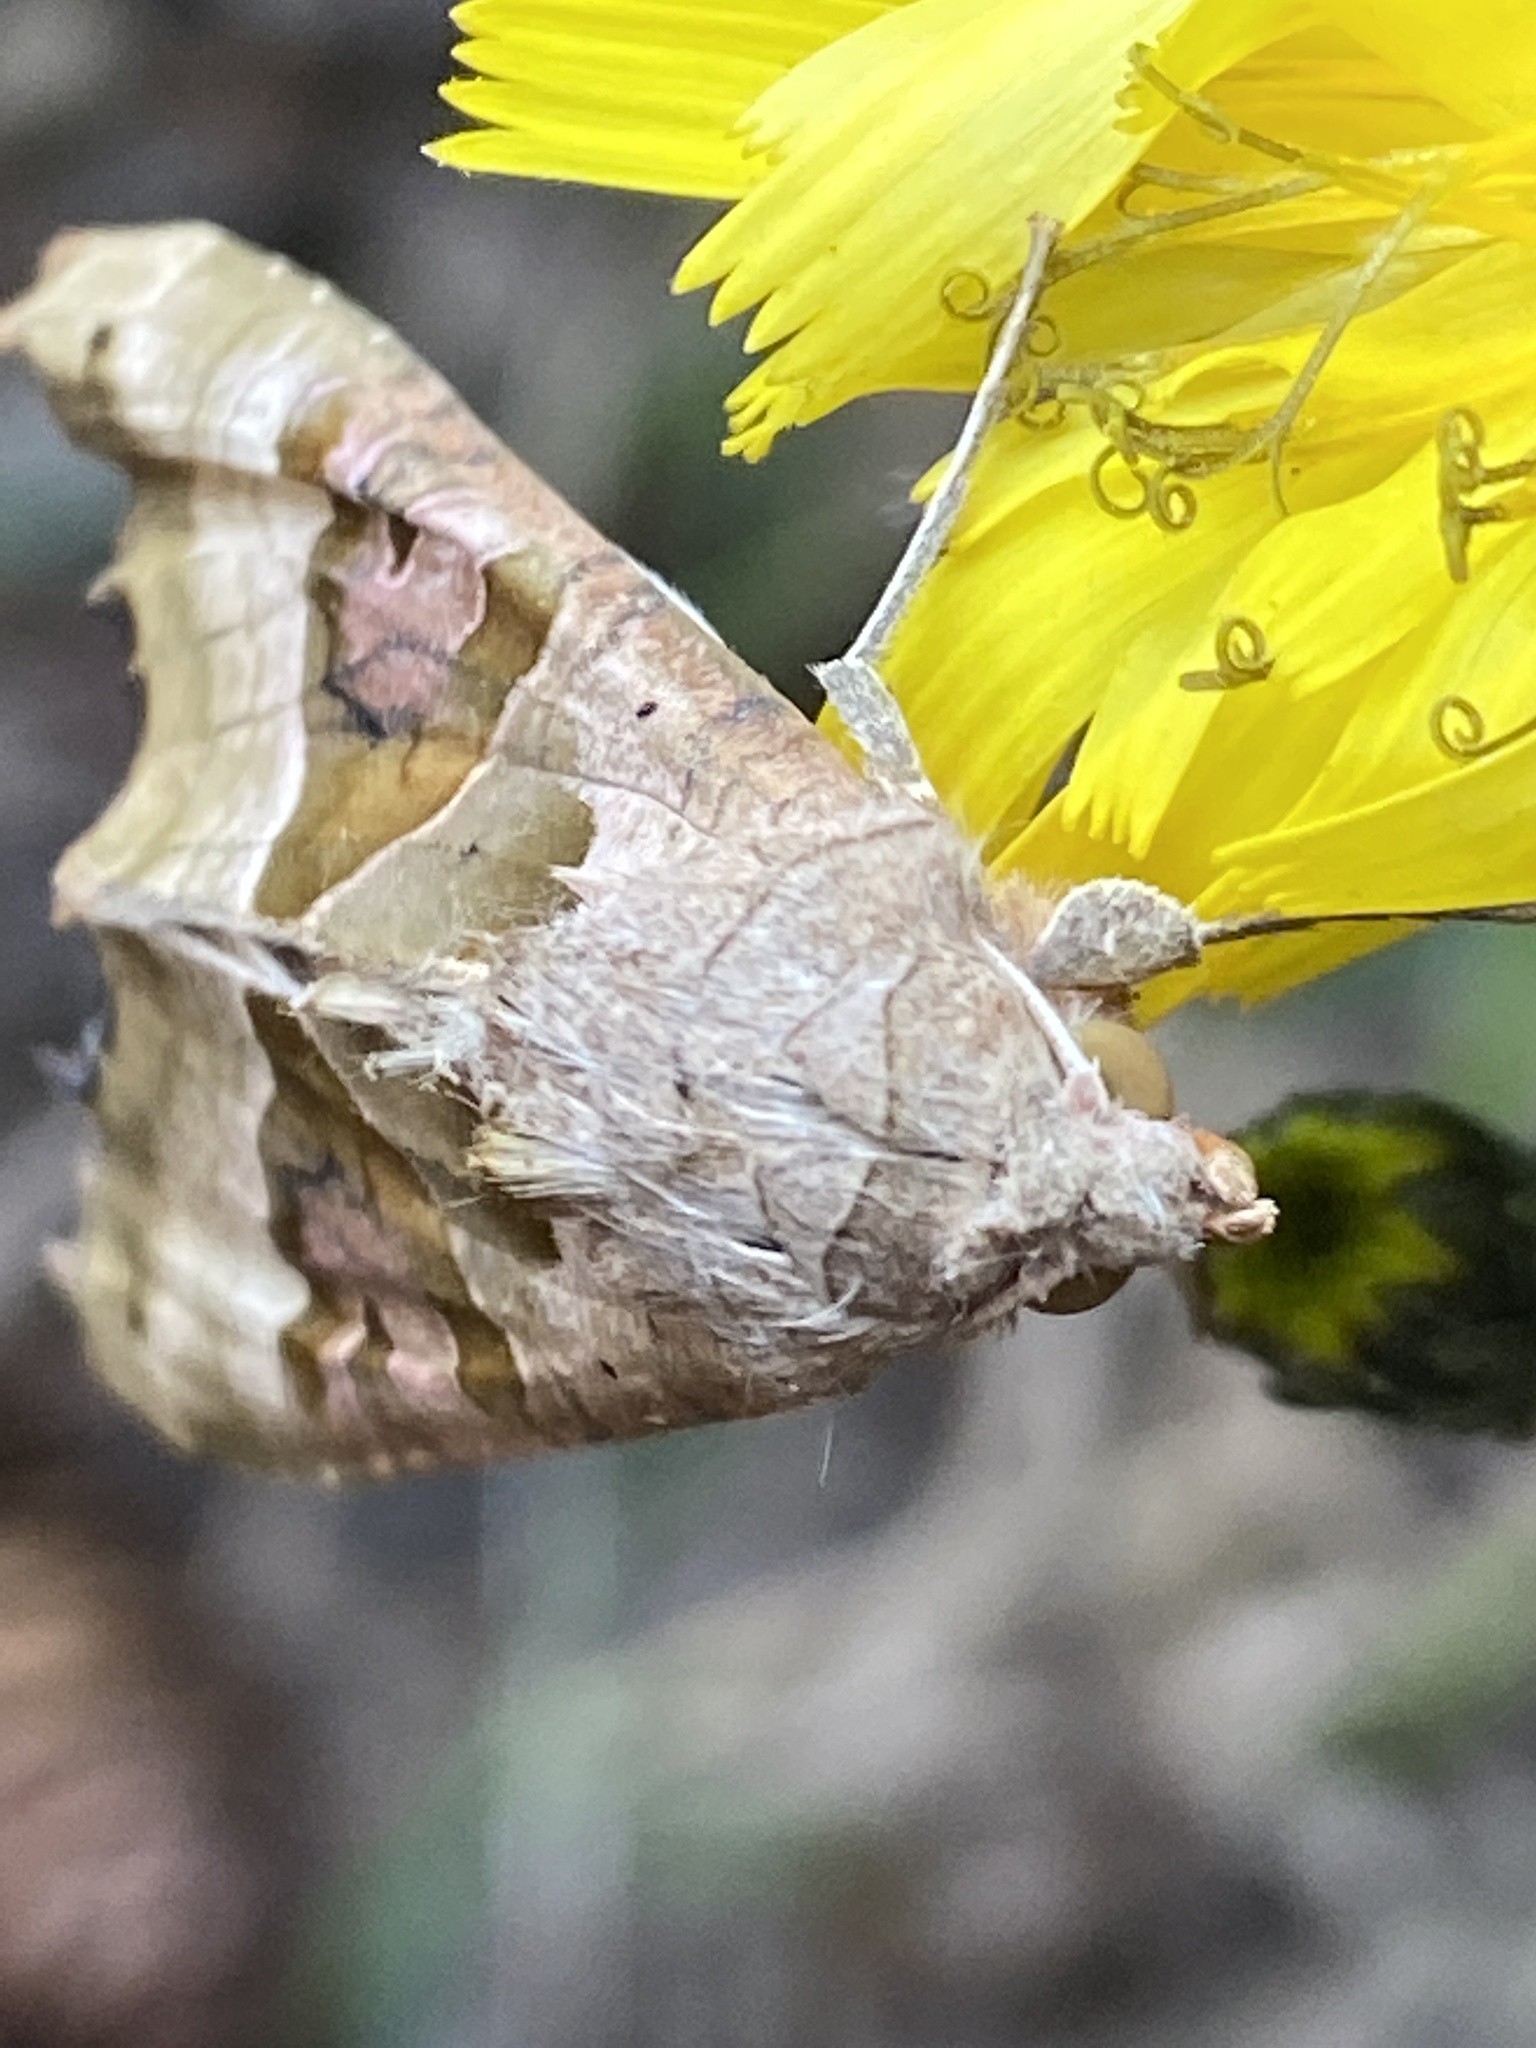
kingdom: Animalia
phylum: Arthropoda
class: Insecta
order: Lepidoptera
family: Noctuidae
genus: Phlogophora
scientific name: Phlogophora meticulosa
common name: Angle shades
